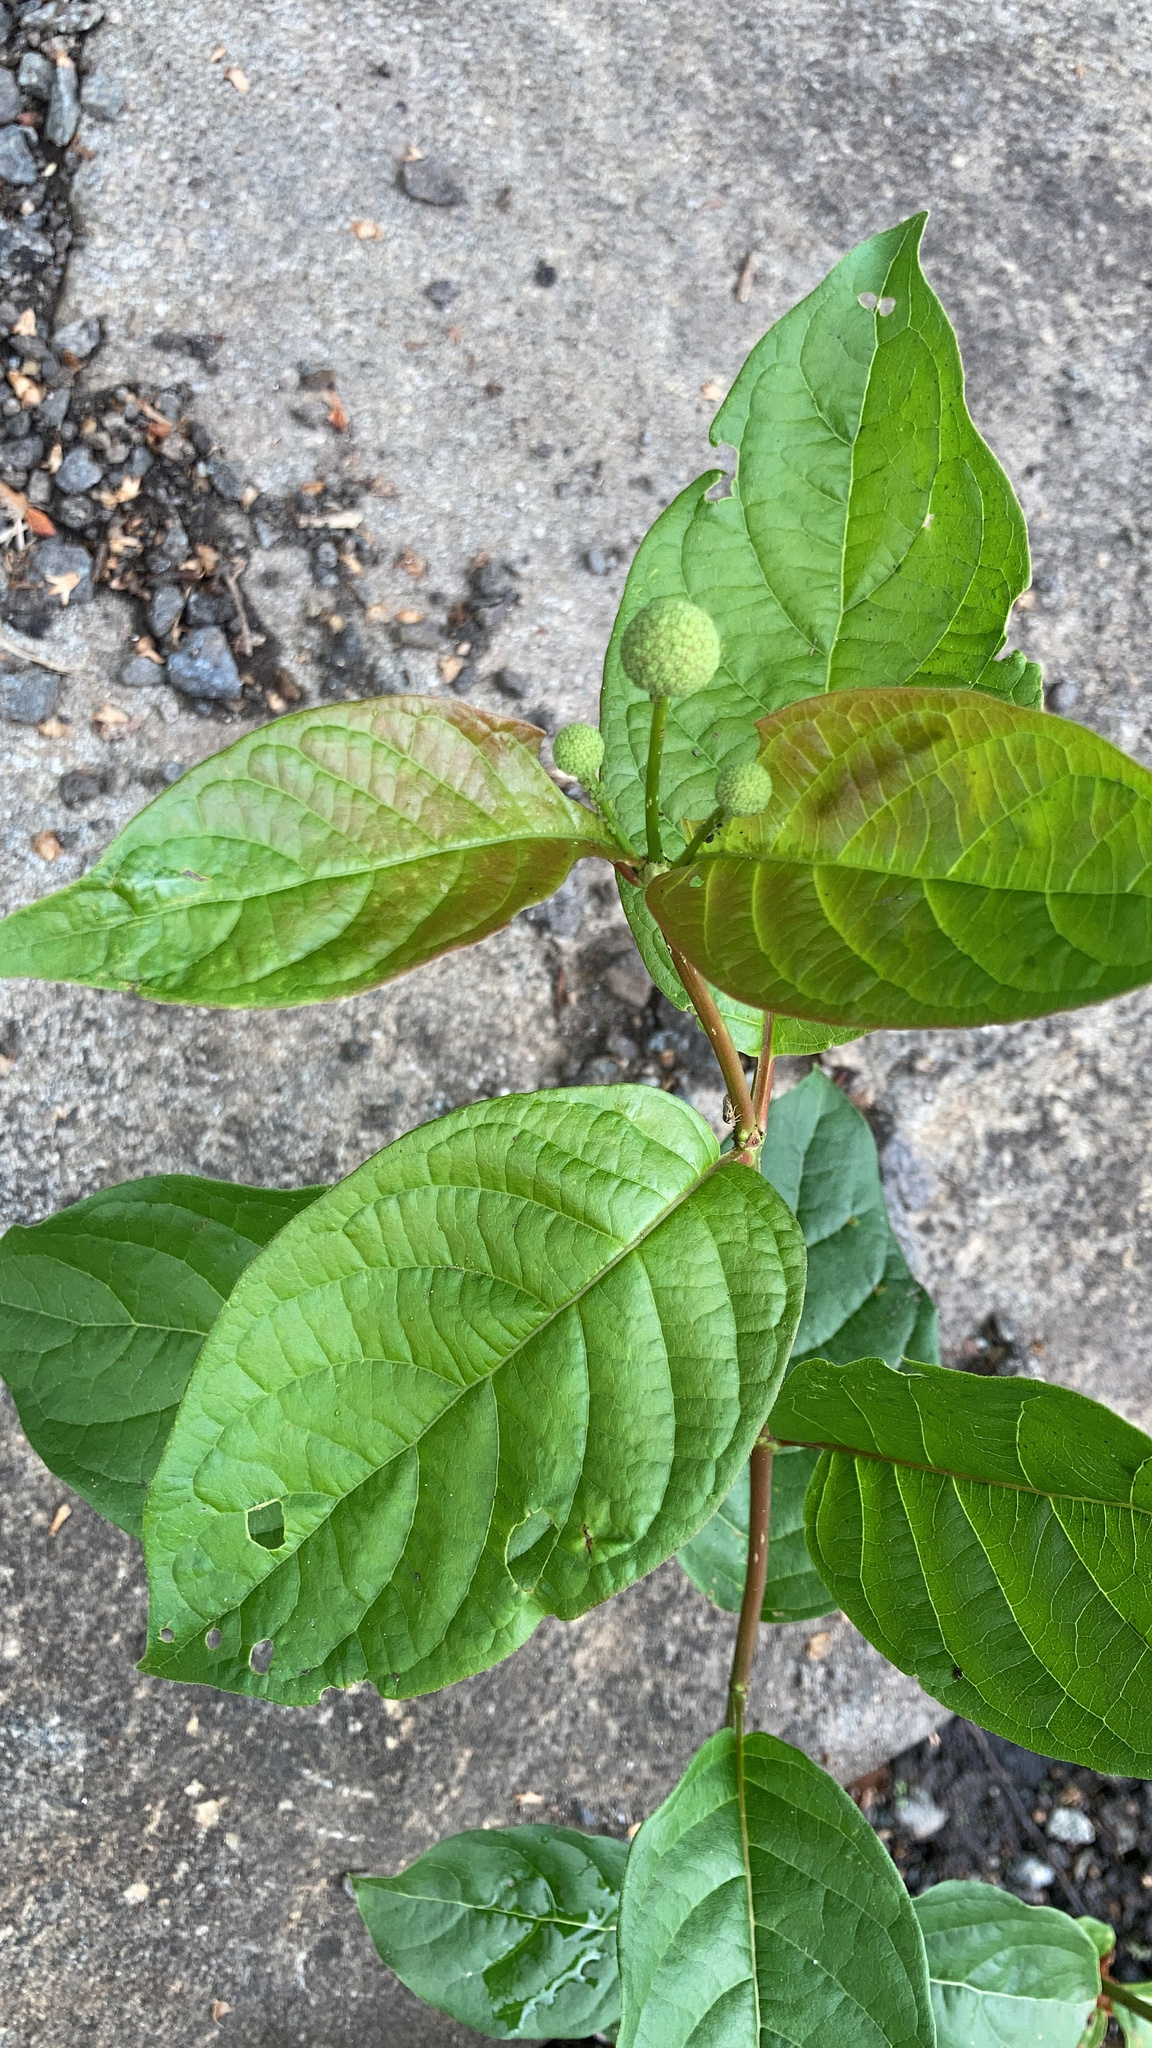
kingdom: Plantae
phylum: Tracheophyta
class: Magnoliopsida
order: Gentianales
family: Rubiaceae
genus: Cephalanthus
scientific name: Cephalanthus occidentalis
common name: Button-willow
